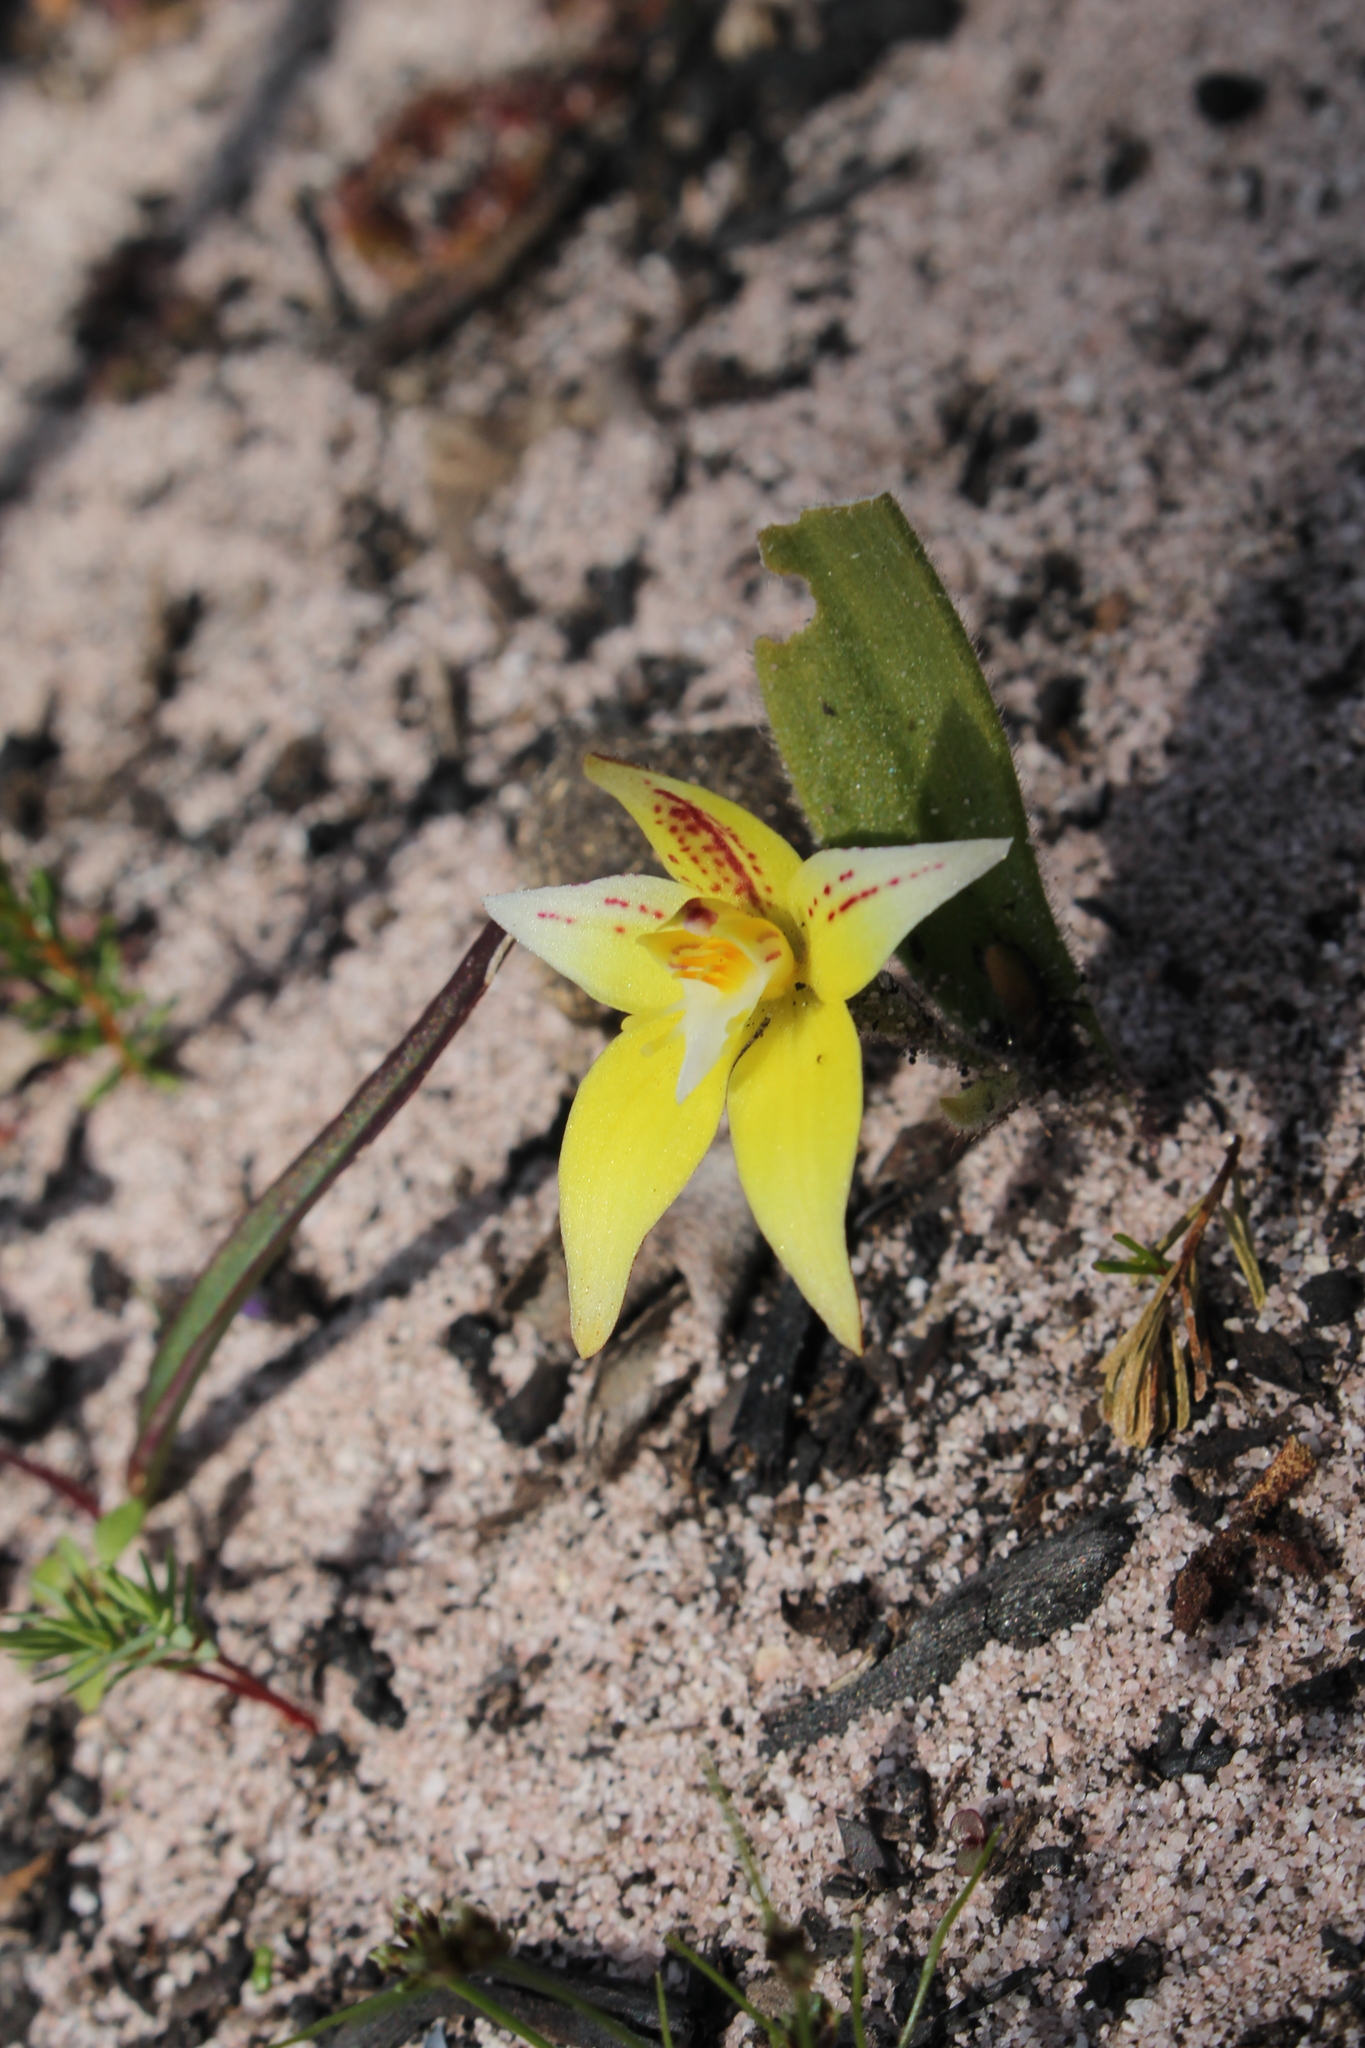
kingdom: Plantae
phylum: Tracheophyta
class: Liliopsida
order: Asparagales
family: Orchidaceae
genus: Caladenia
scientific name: Caladenia flava
